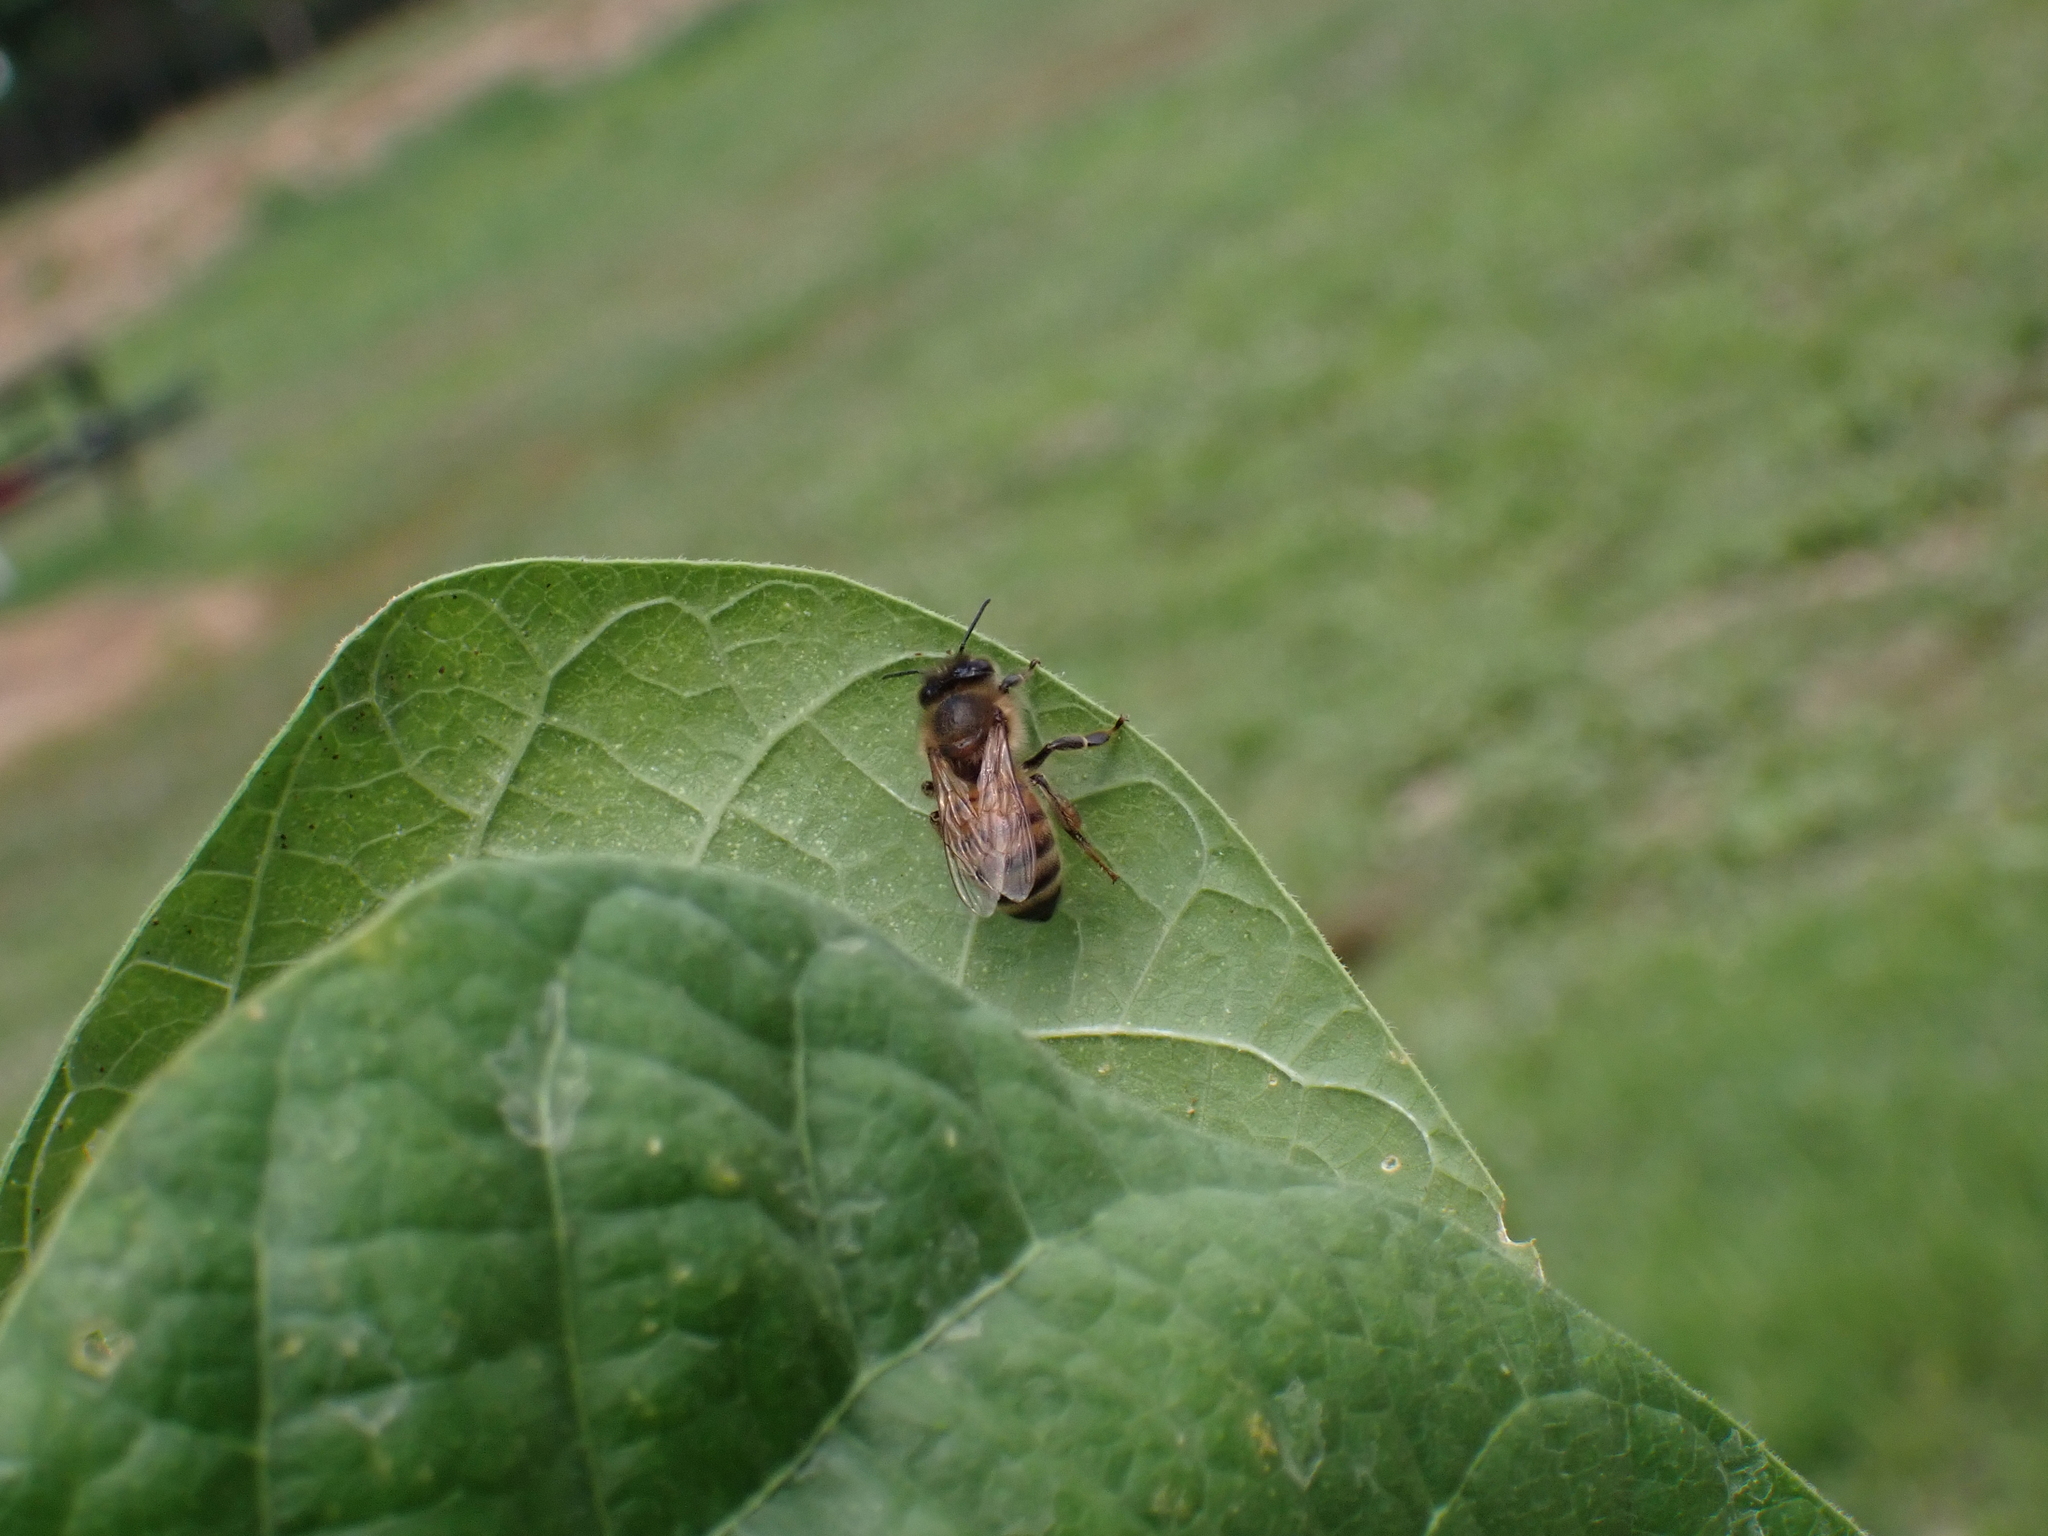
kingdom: Animalia
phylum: Arthropoda
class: Insecta
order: Hymenoptera
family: Apidae
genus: Apis
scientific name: Apis mellifera
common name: Honey bee
